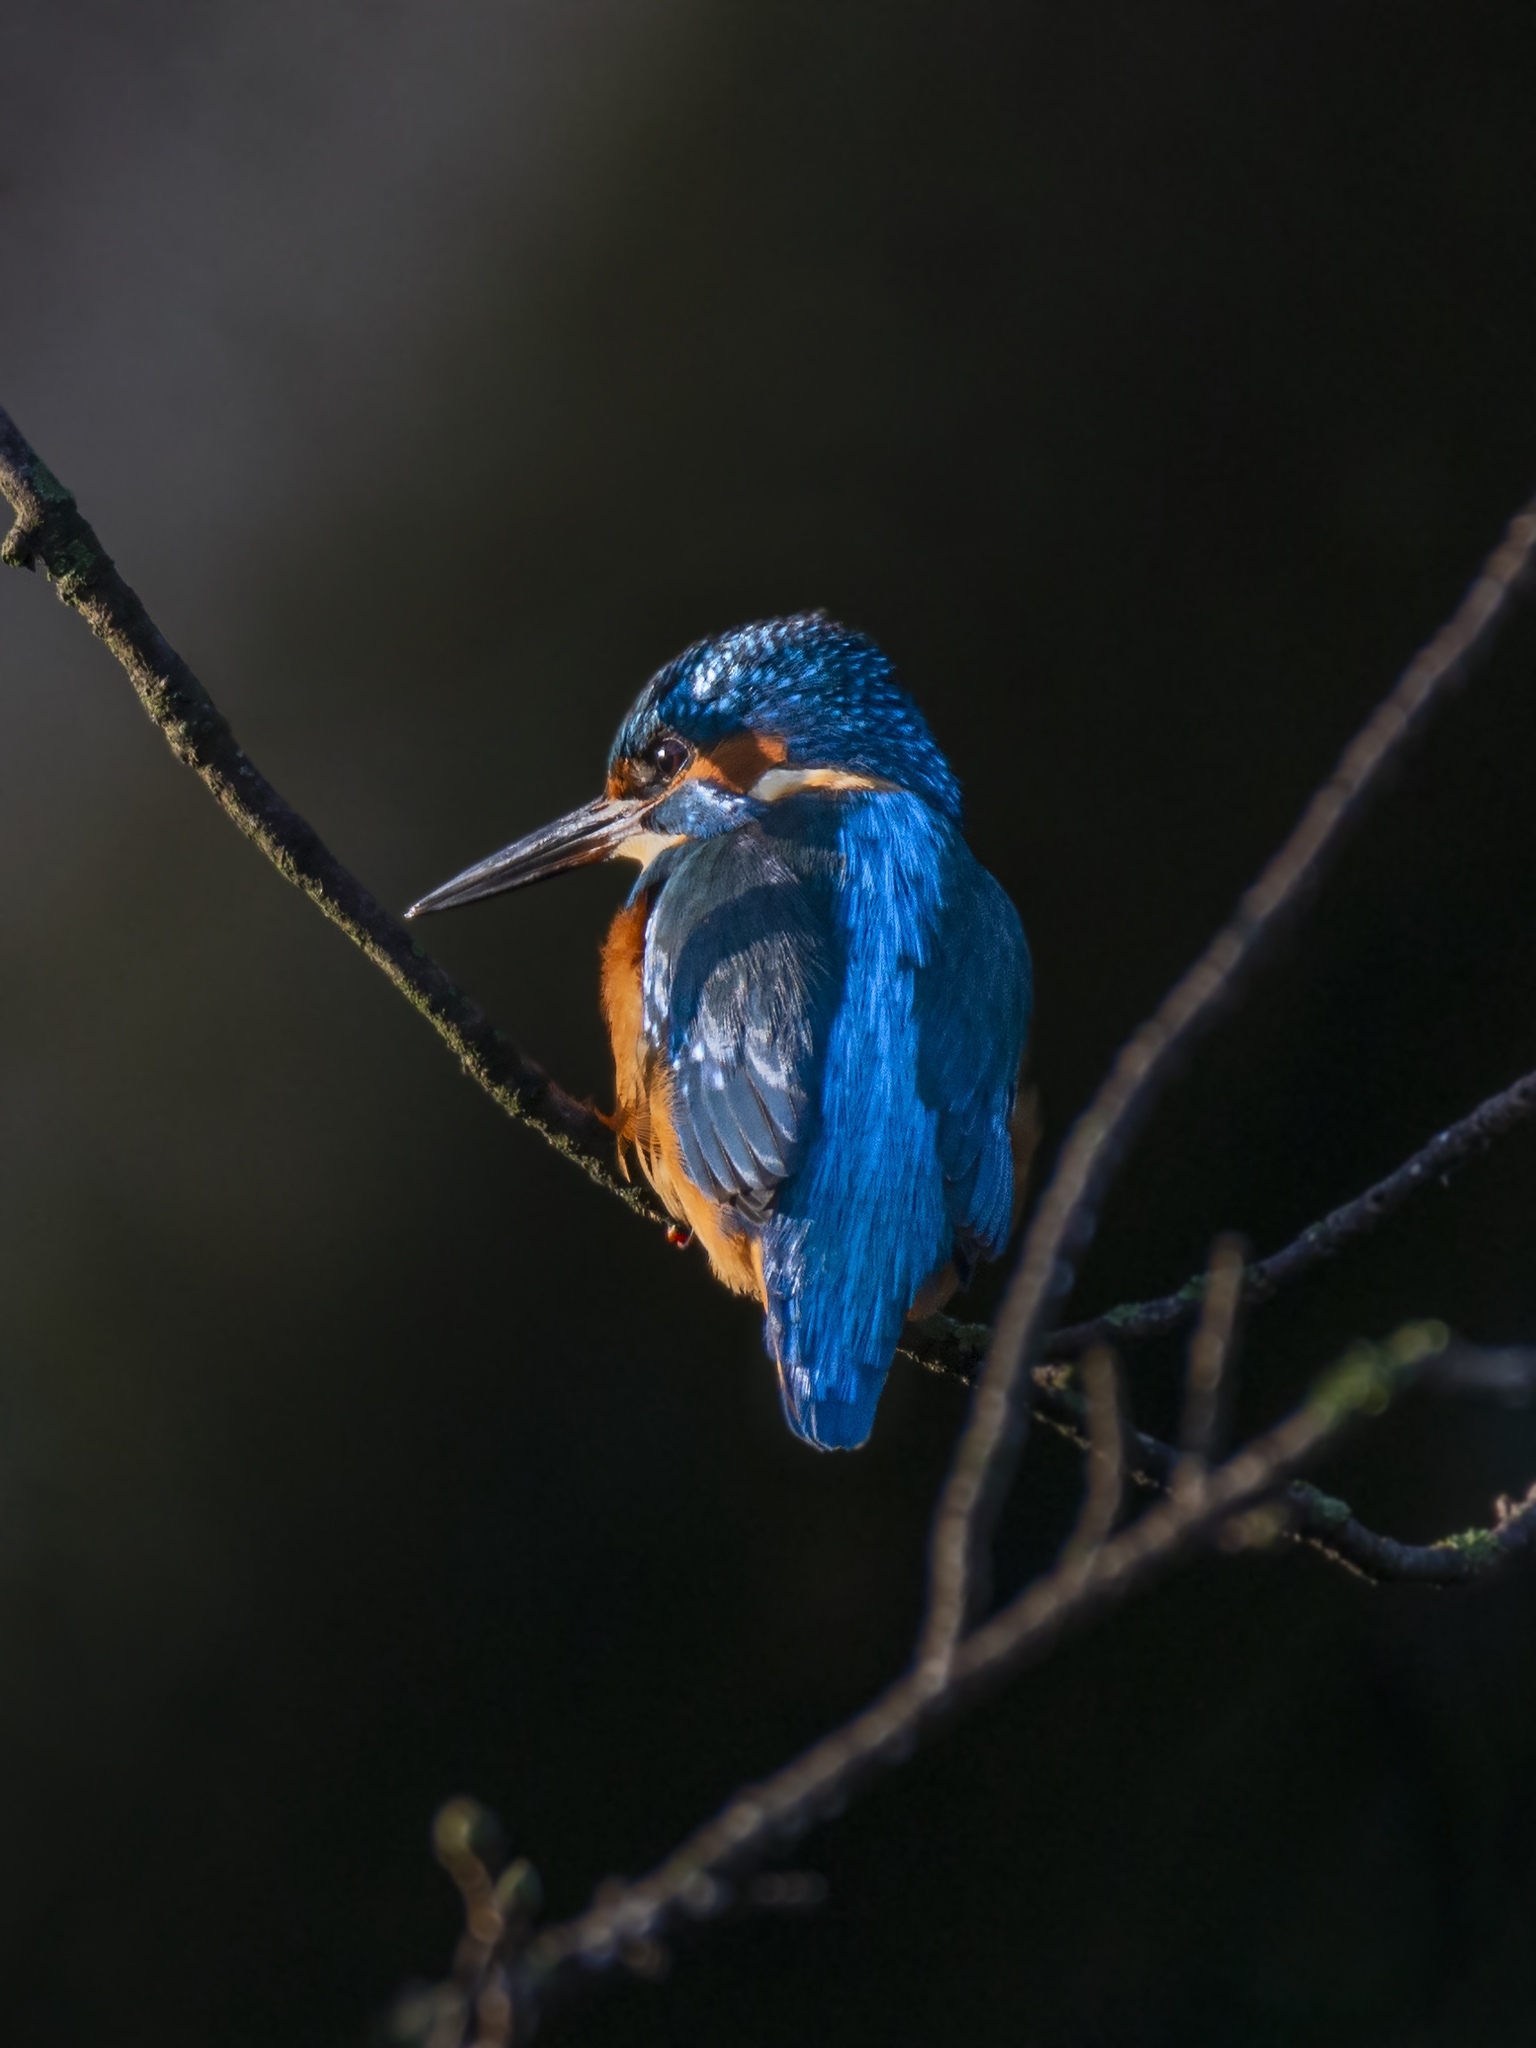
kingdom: Animalia
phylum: Chordata
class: Aves
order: Coraciiformes
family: Alcedinidae
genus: Alcedo
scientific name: Alcedo atthis
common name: Common kingfisher
